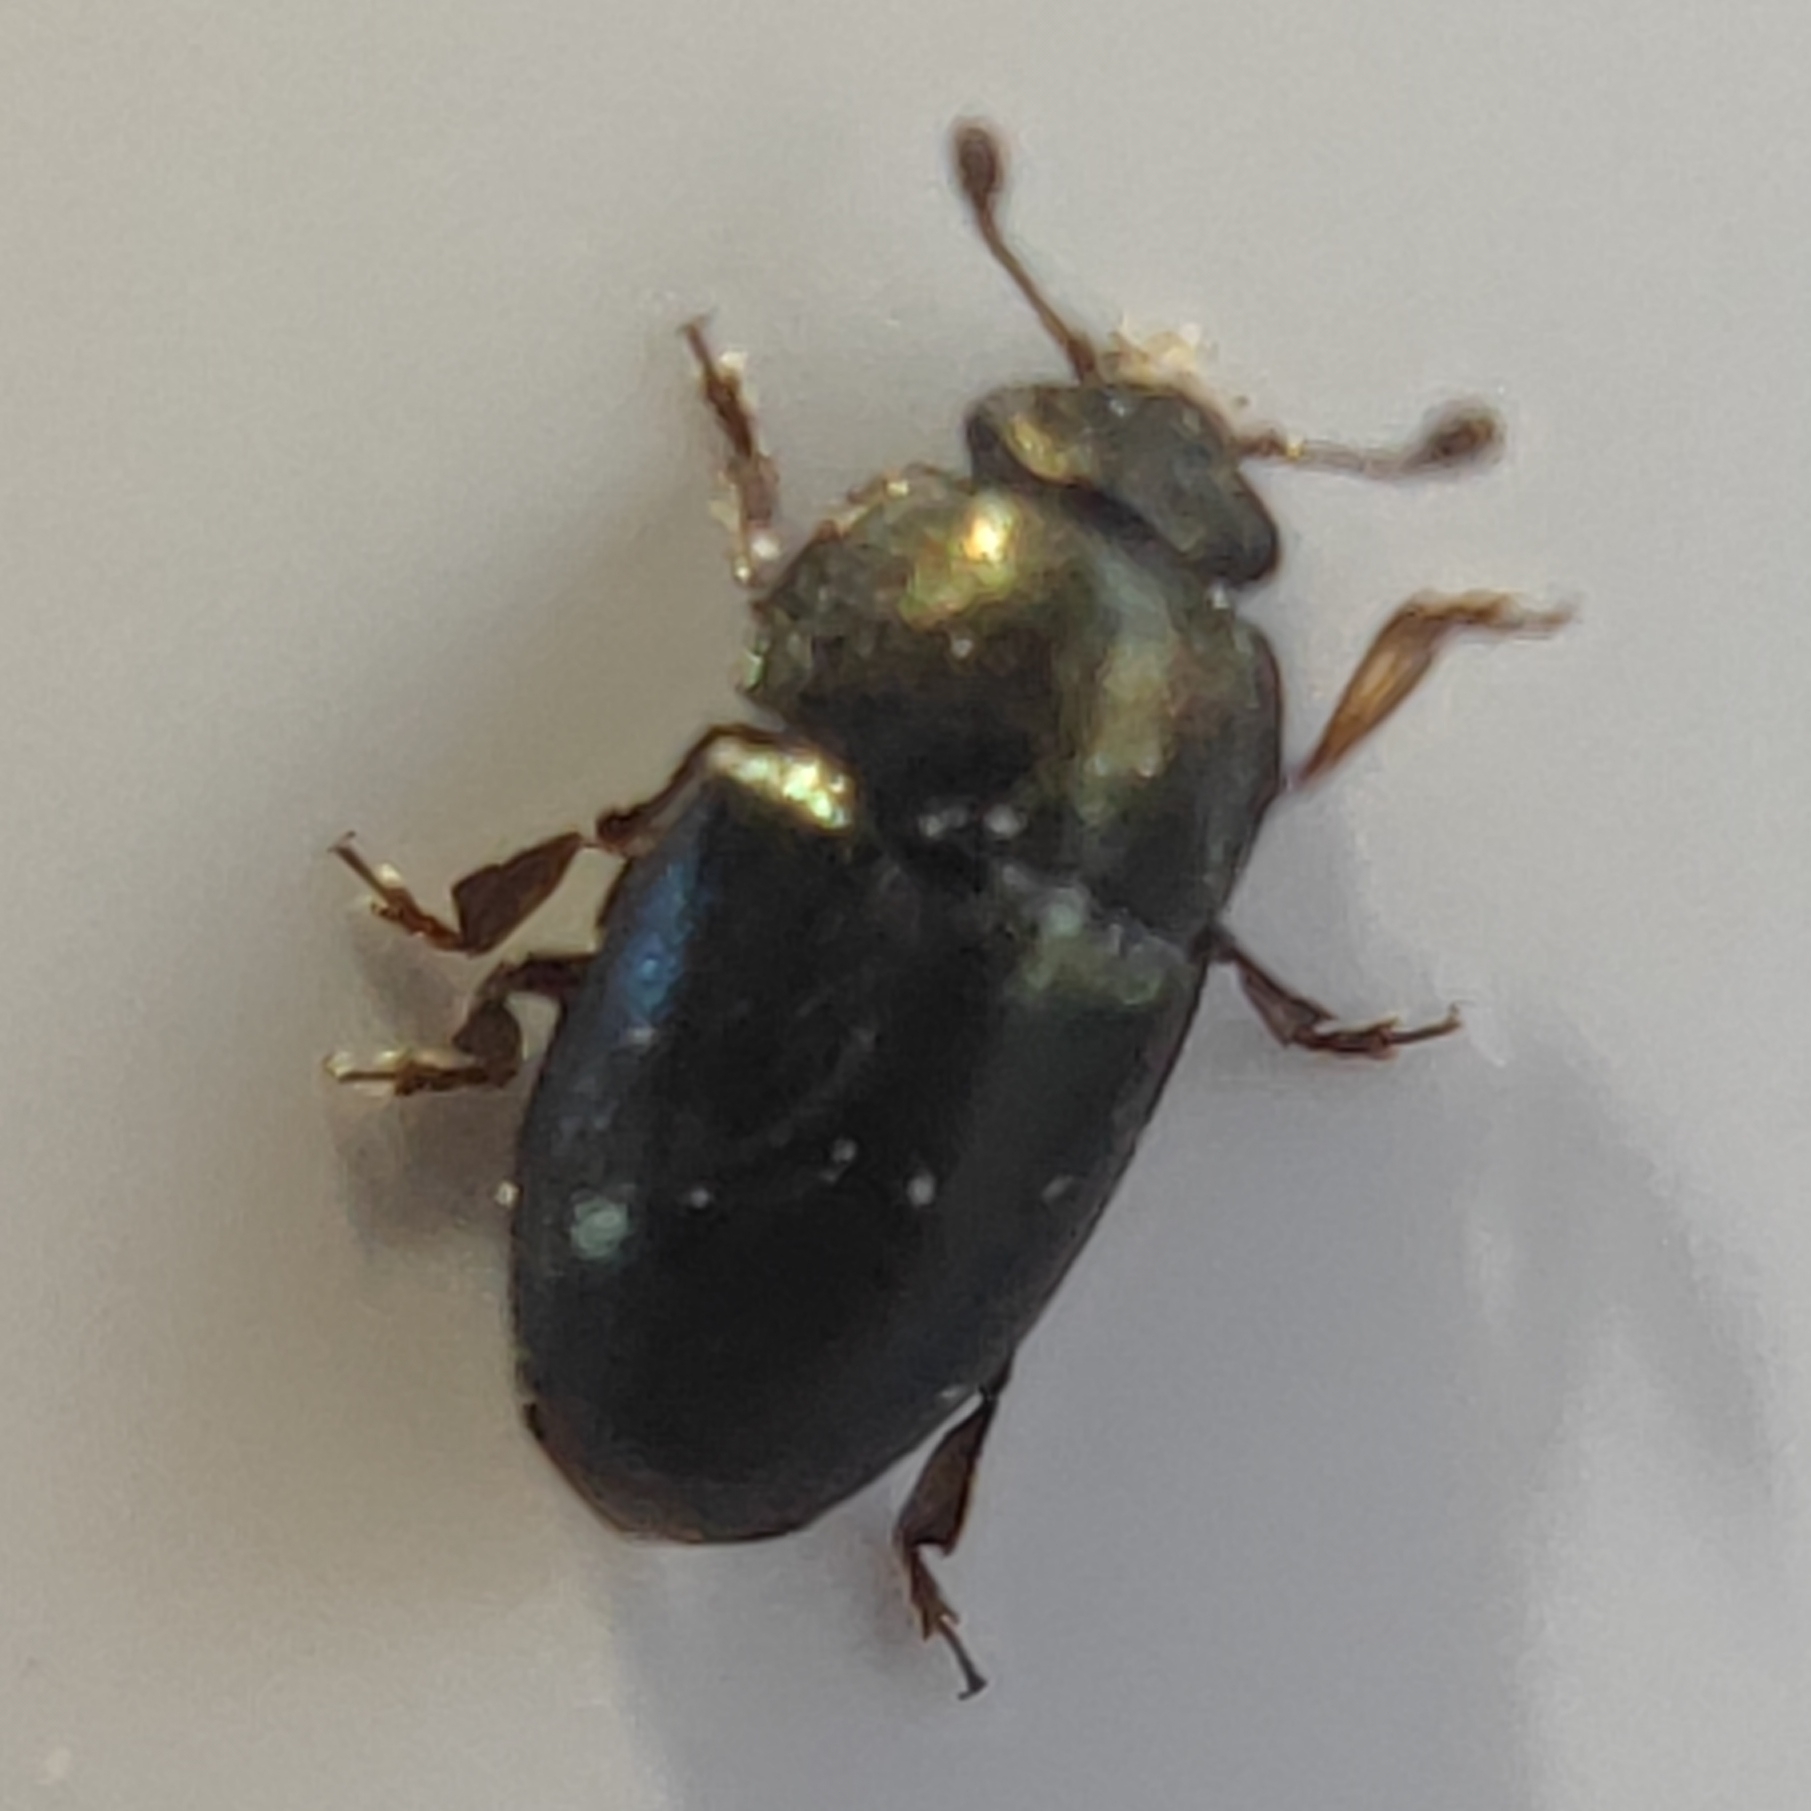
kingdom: Animalia
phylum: Arthropoda
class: Insecta
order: Coleoptera
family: Nitidulidae
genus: Brassicogethes
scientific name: Brassicogethes aeneus
